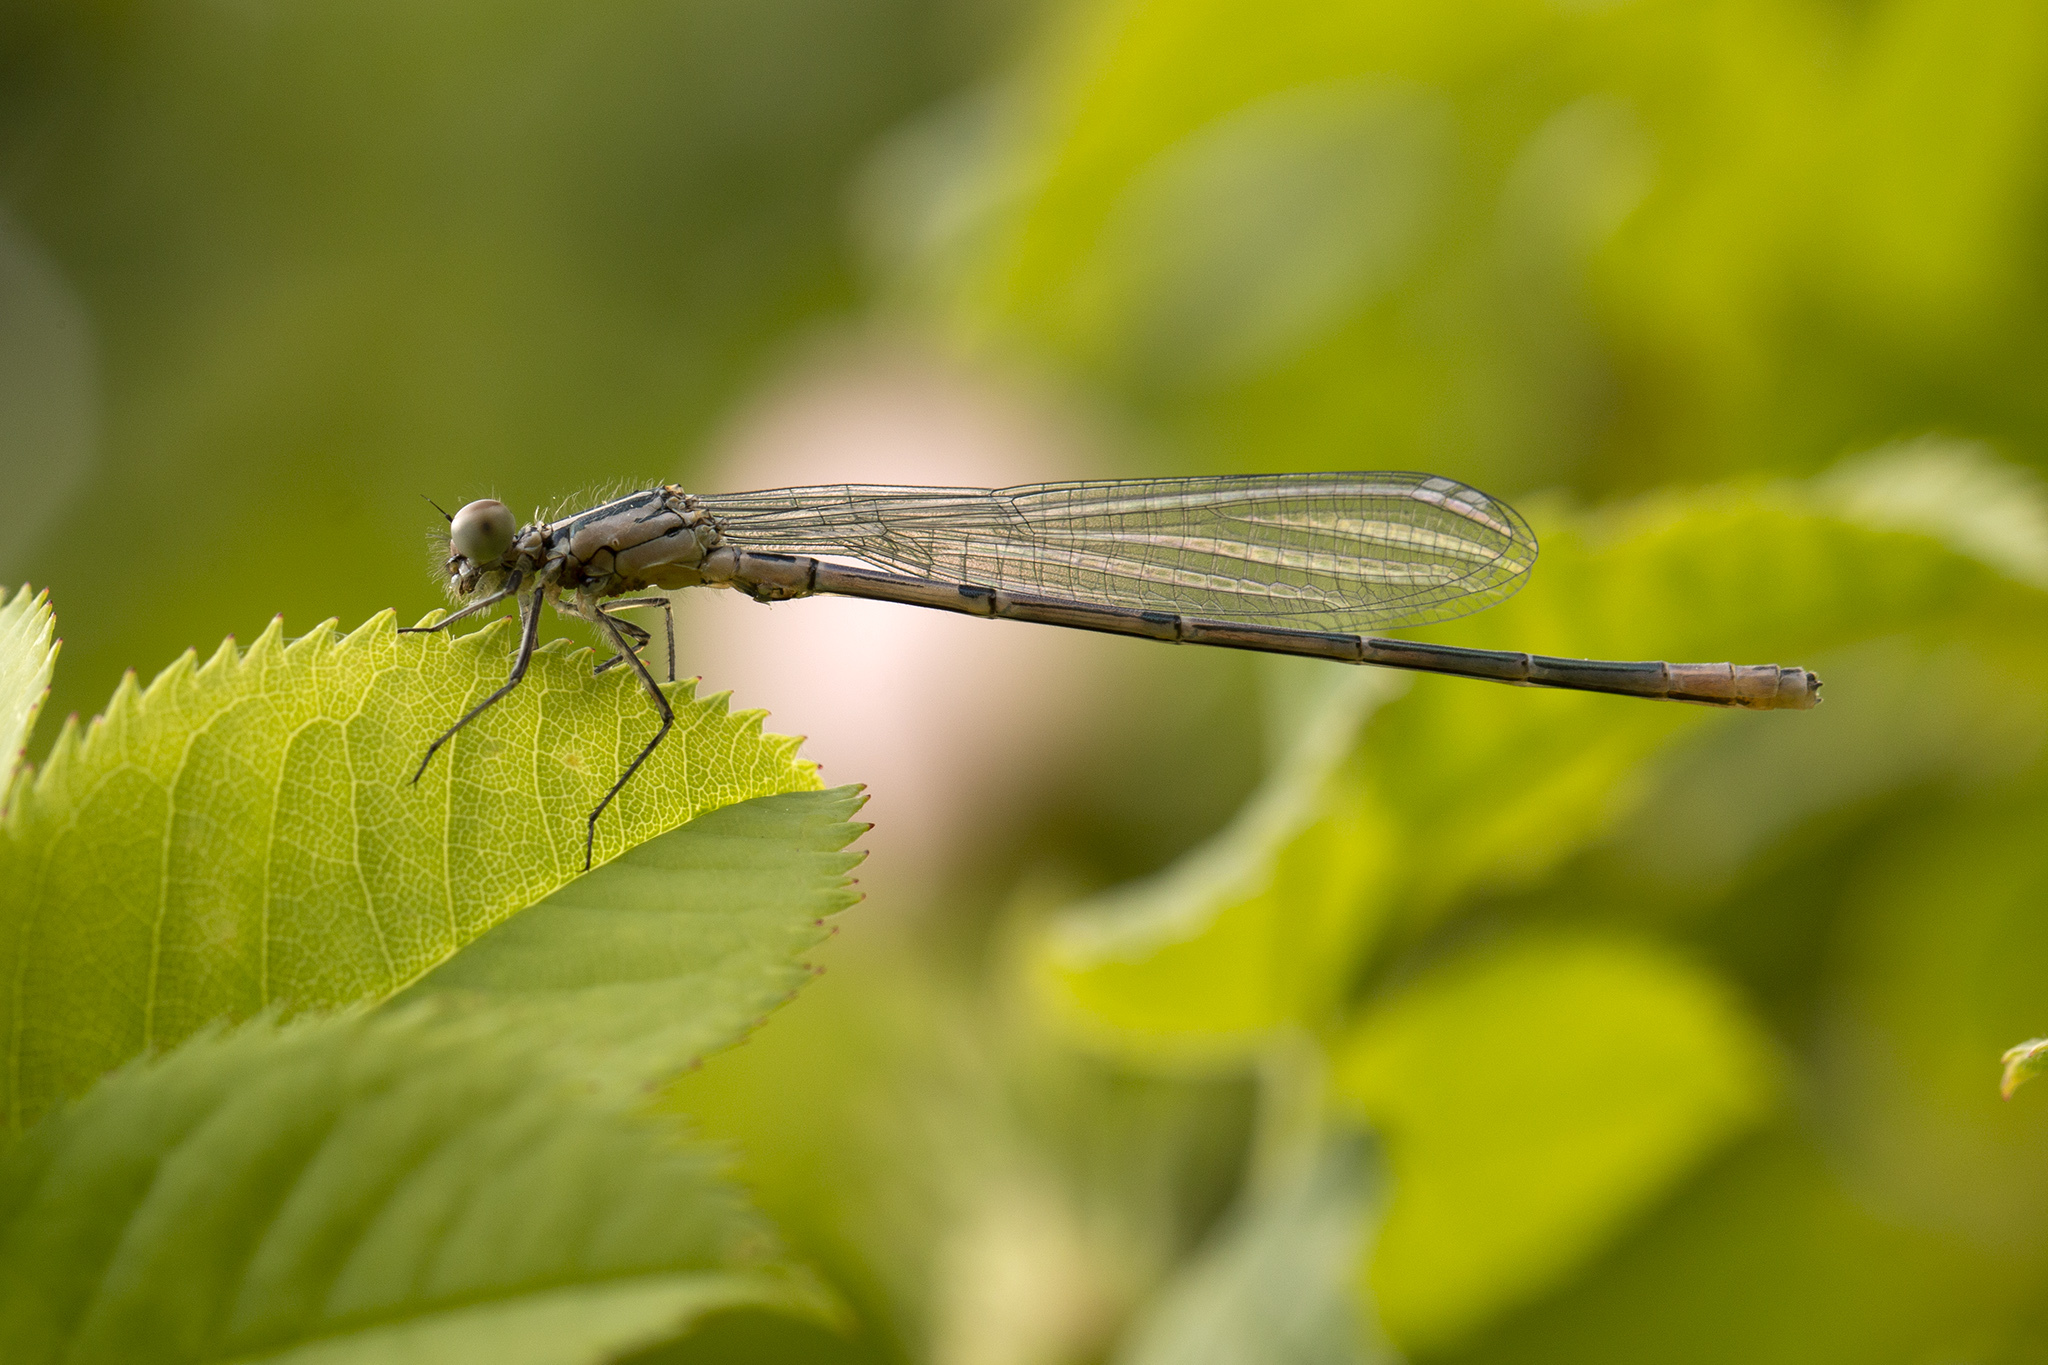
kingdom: Animalia
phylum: Arthropoda
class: Insecta
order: Odonata
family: Coenagrionidae
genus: Coenagrion
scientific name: Coenagrion puella
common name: Azure damselfly
